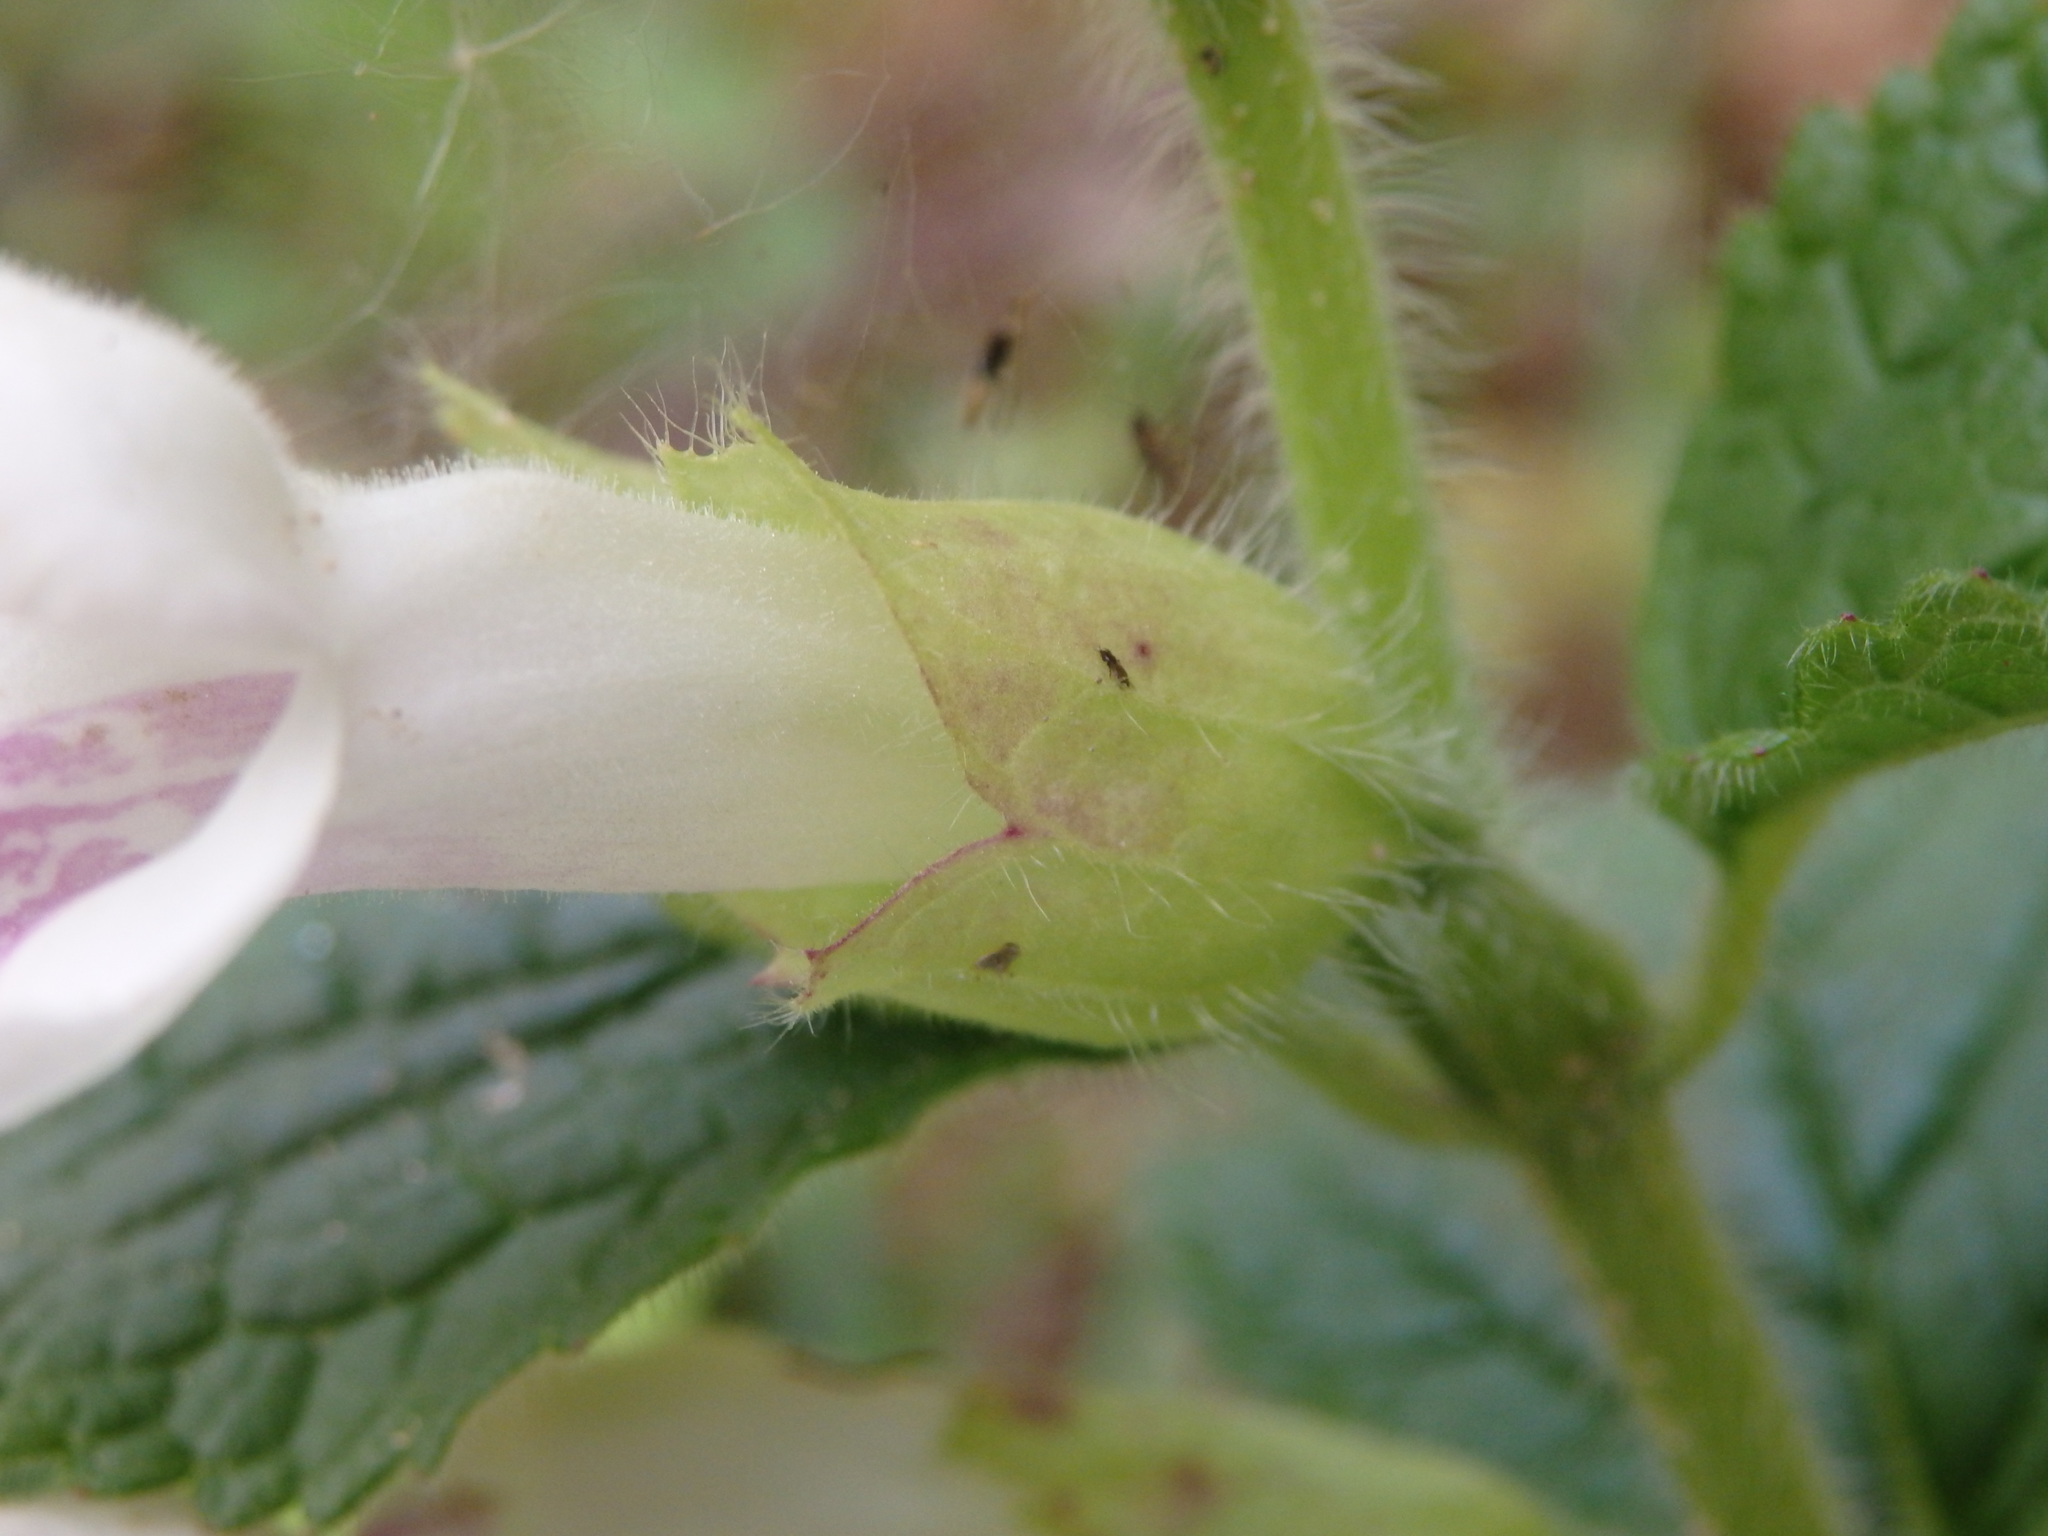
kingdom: Plantae
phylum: Tracheophyta
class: Magnoliopsida
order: Lamiales
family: Lamiaceae
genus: Melittis
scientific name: Melittis melissophyllum
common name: Bastard balm
